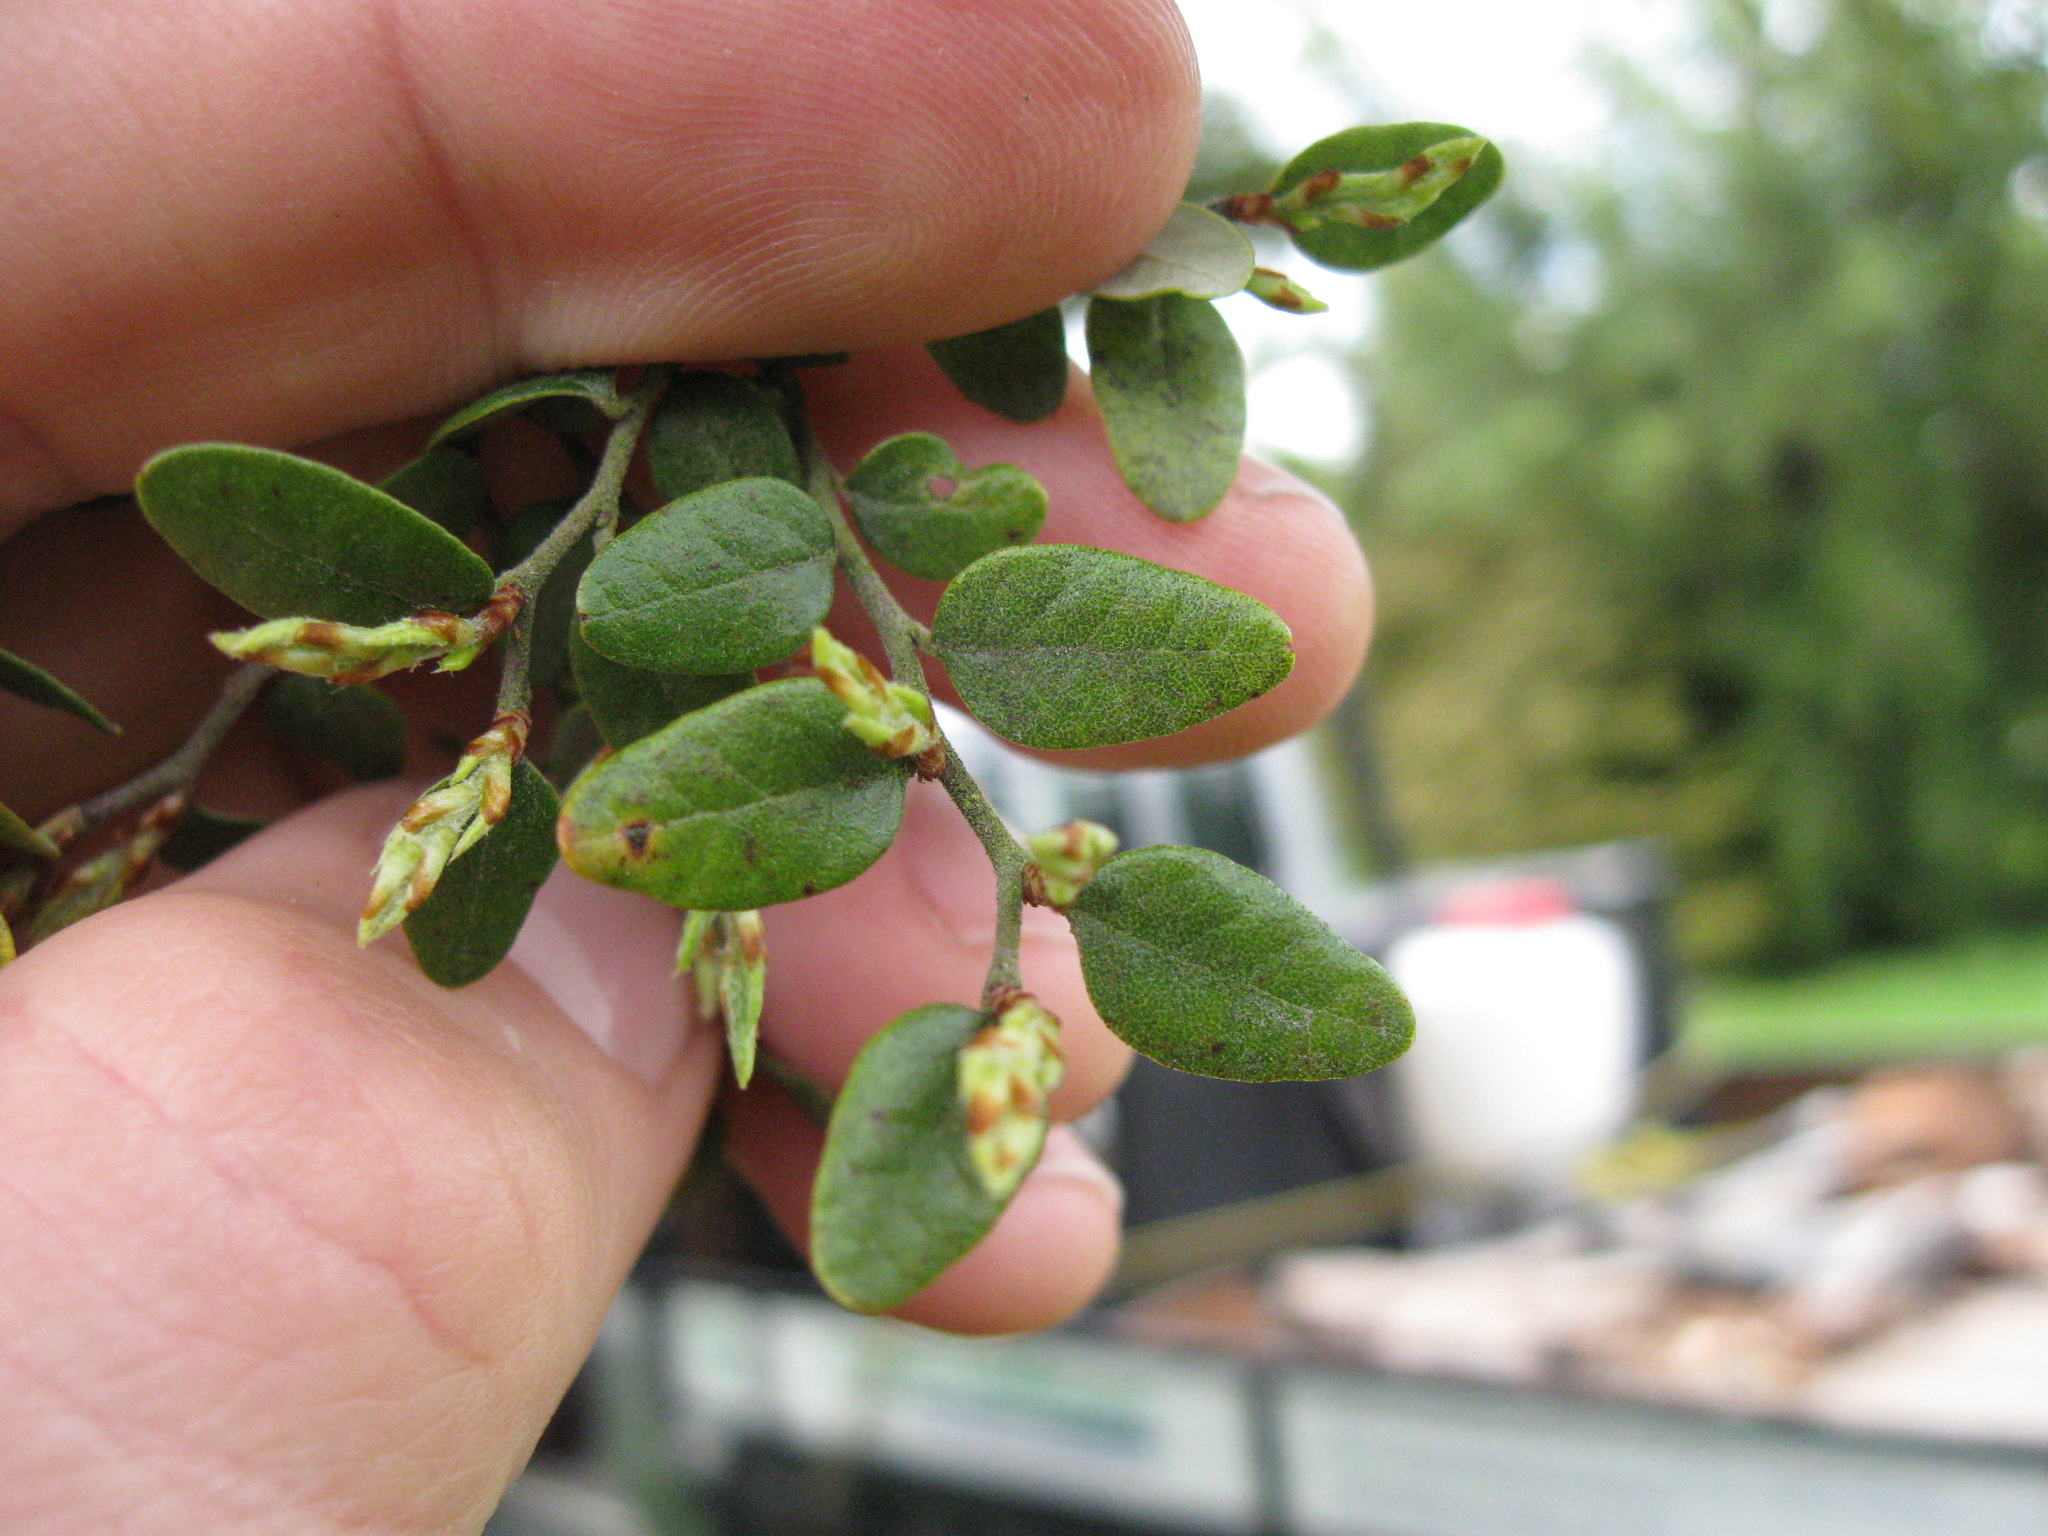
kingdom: Plantae
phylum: Tracheophyta
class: Magnoliopsida
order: Fagales
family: Nothofagaceae
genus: Nothofagus
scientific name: Nothofagus solandri
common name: Black beech
